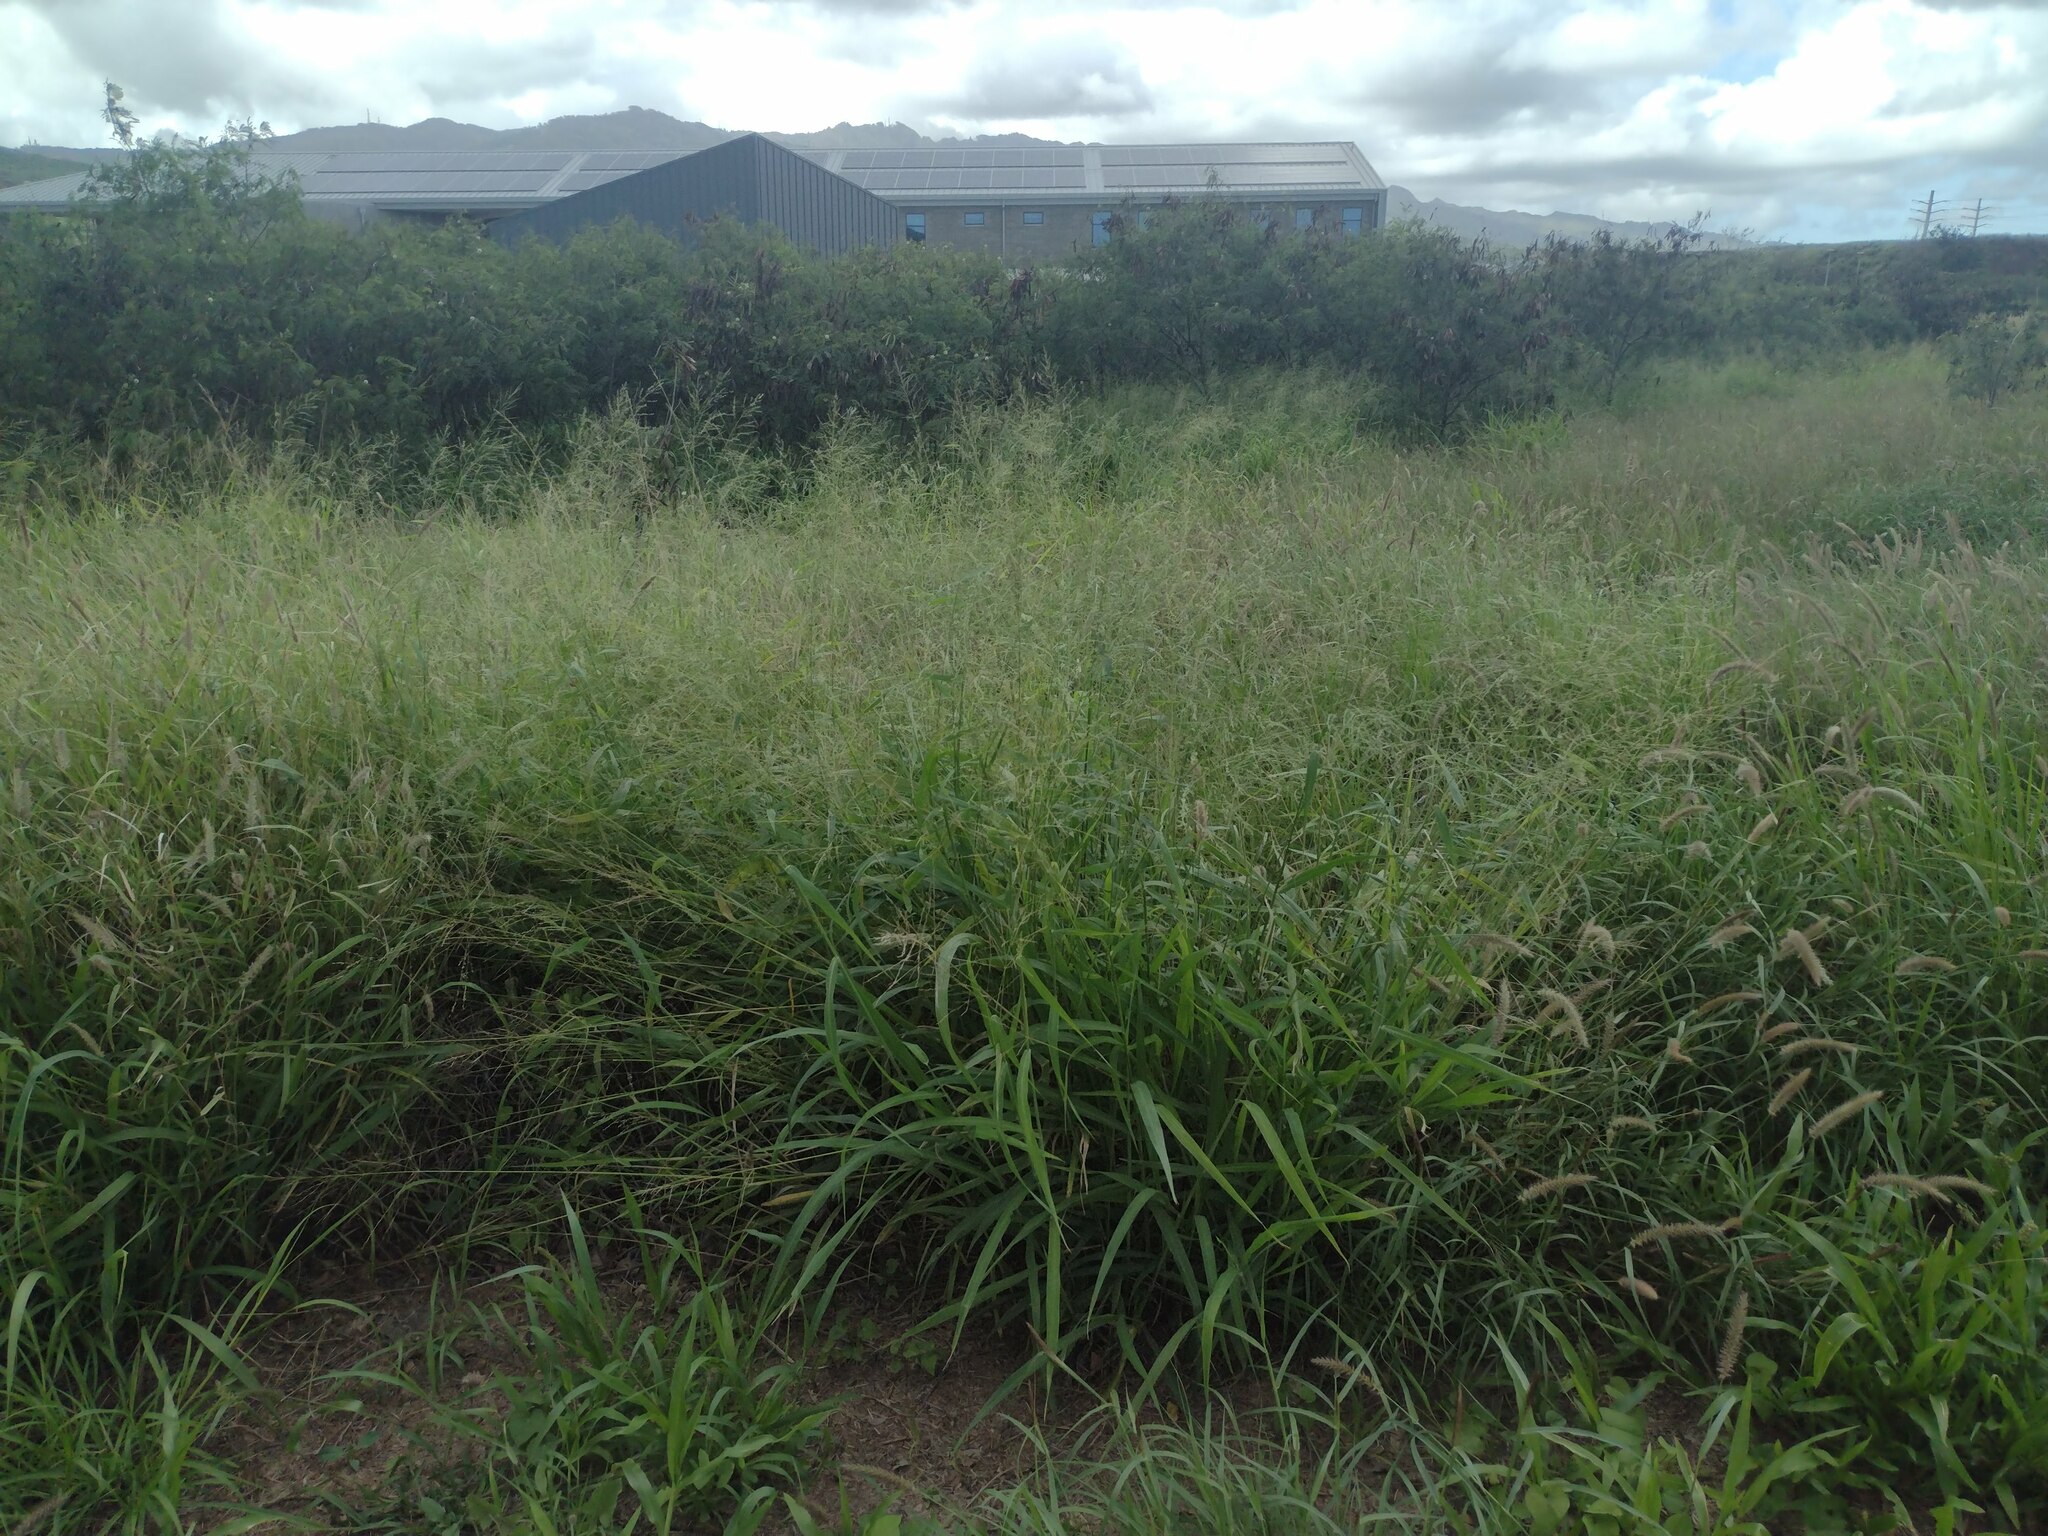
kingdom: Plantae
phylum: Tracheophyta
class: Liliopsida
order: Poales
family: Poaceae
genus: Megathyrsus
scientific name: Megathyrsus maximus
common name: Guineagrass
